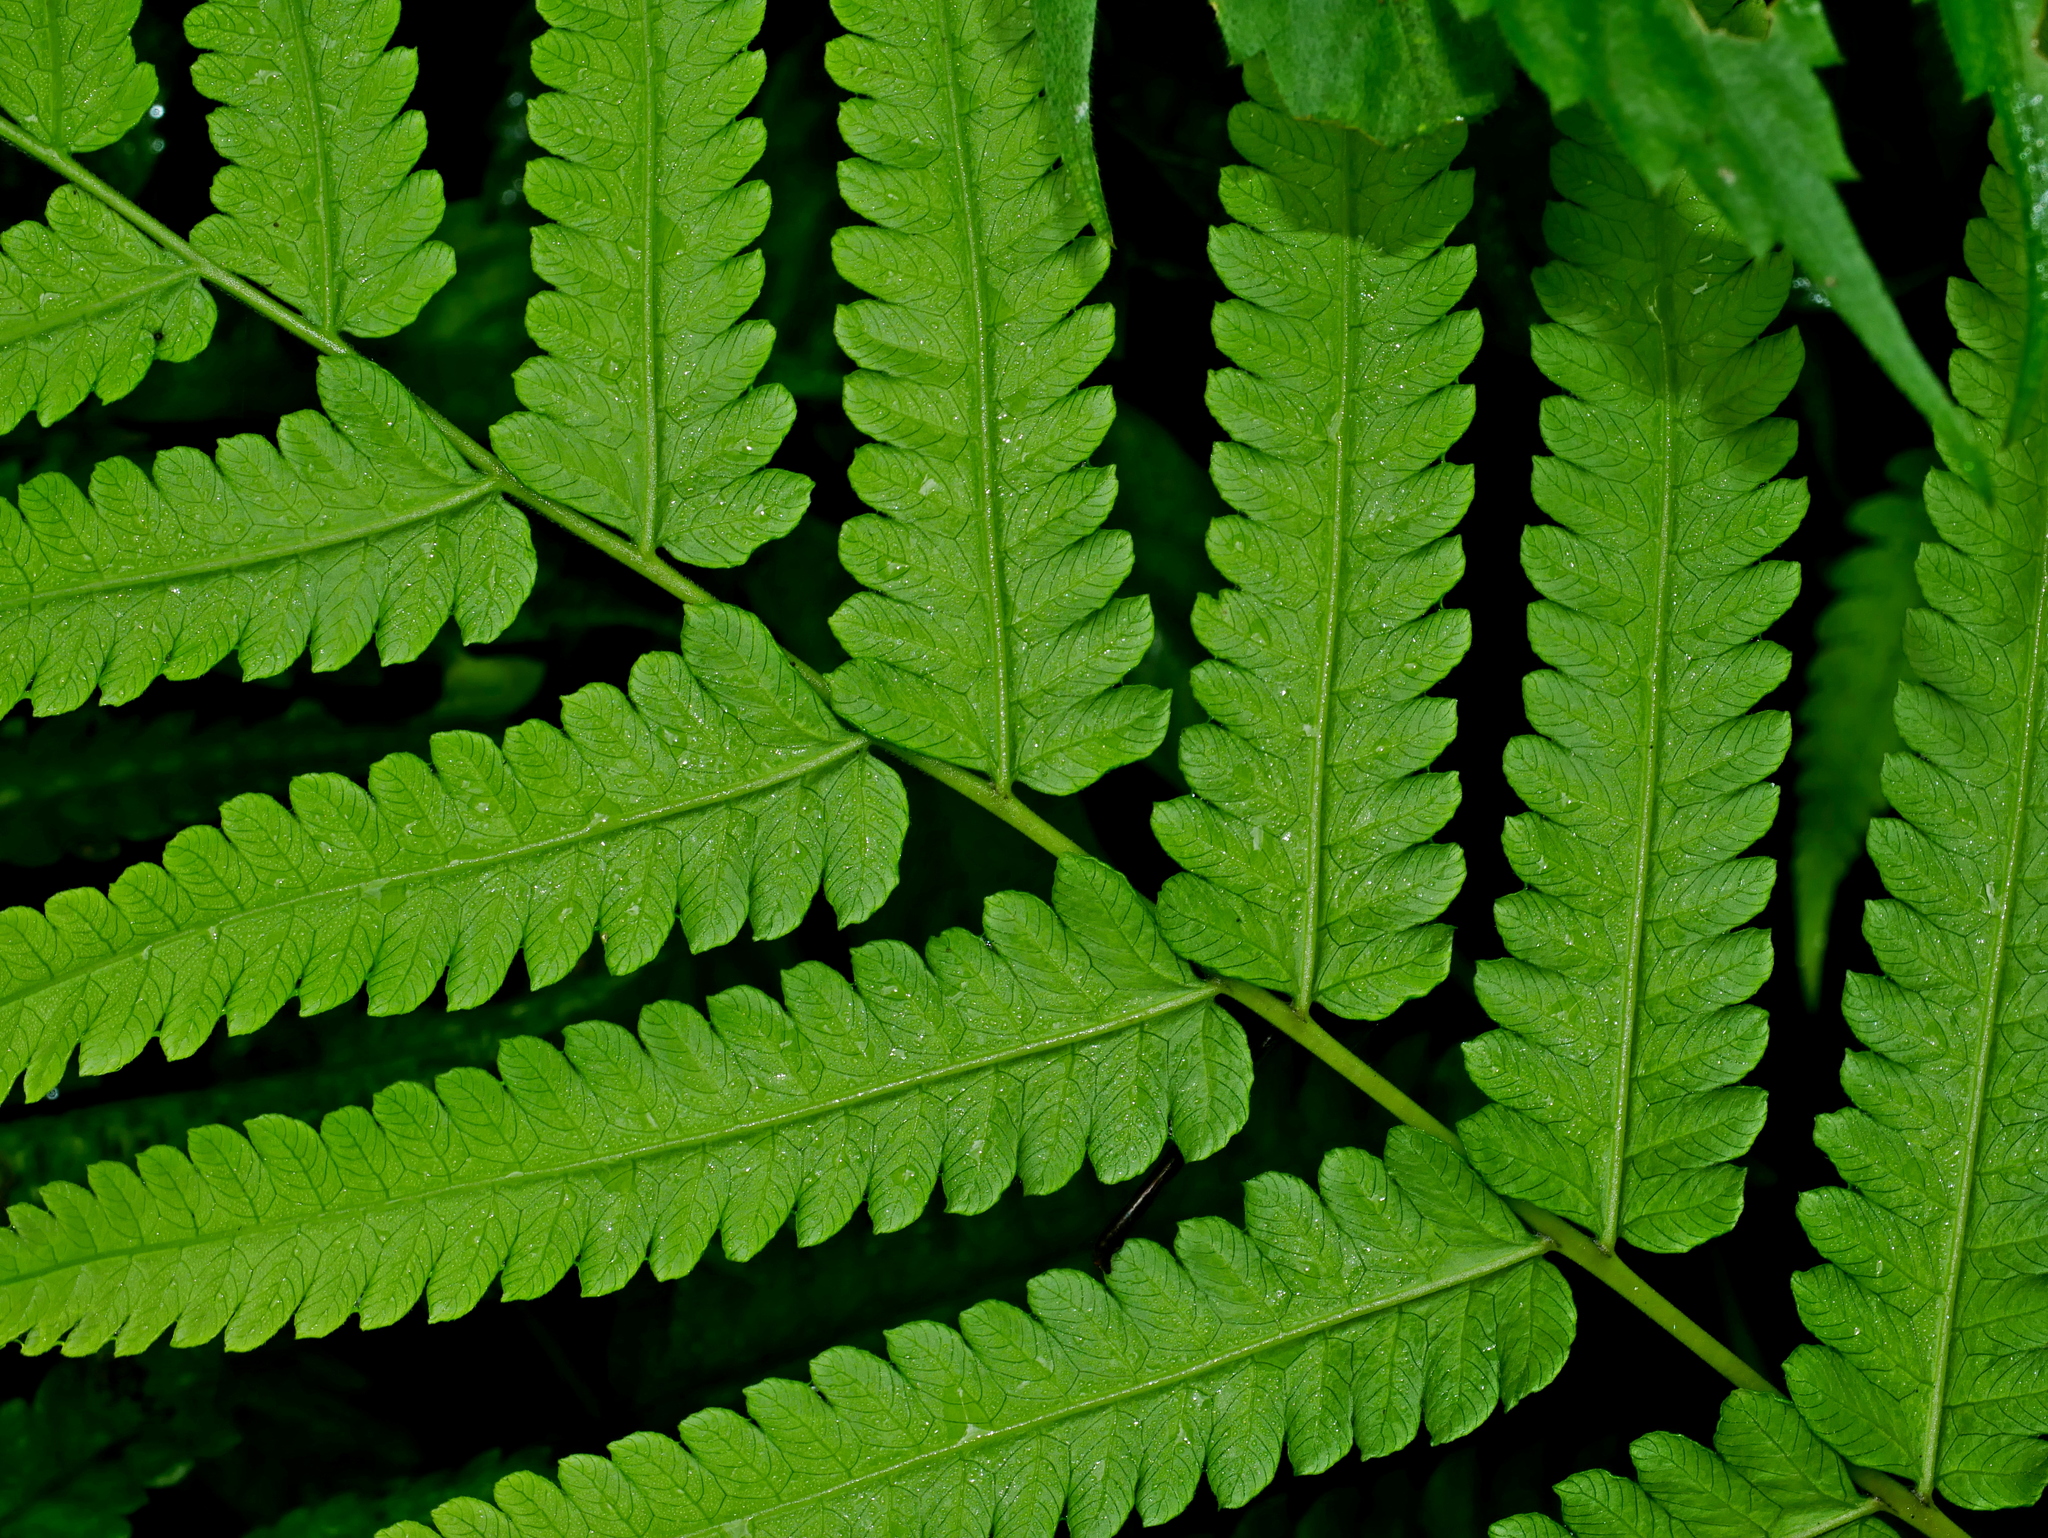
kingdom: Plantae
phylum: Tracheophyta
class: Polypodiopsida
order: Polypodiales
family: Thelypteridaceae
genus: Christella
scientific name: Christella jaculosa
